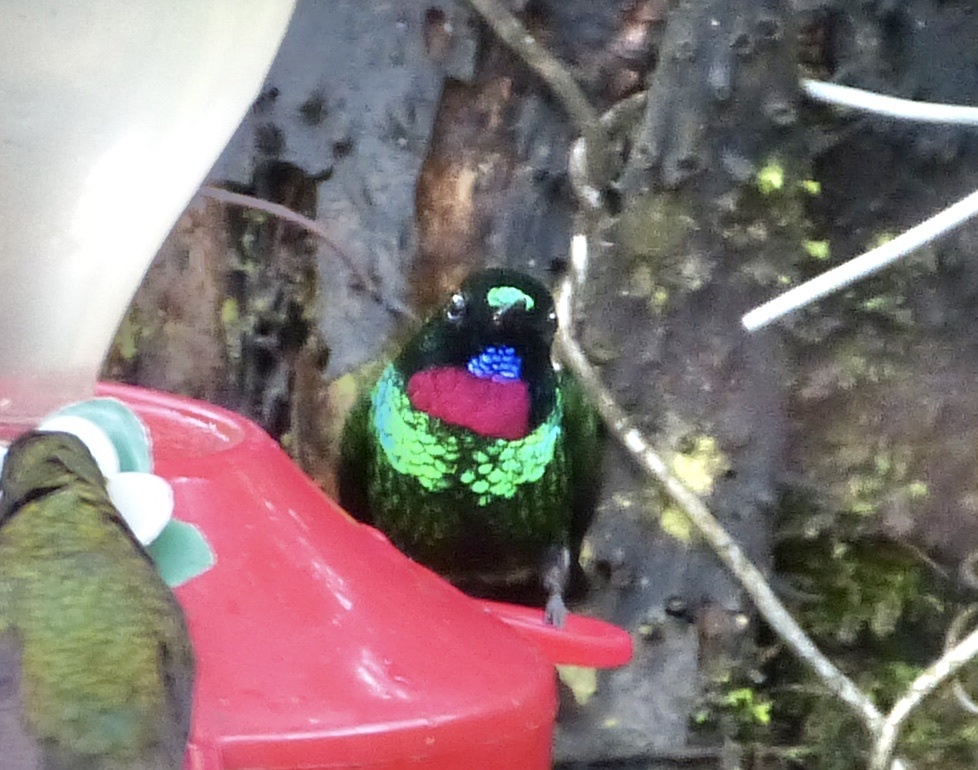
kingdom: Animalia
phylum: Chordata
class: Aves
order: Apodiformes
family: Trochilidae
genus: Heliangelus
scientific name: Heliangelus exortis
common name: Tourmaline sunangel
